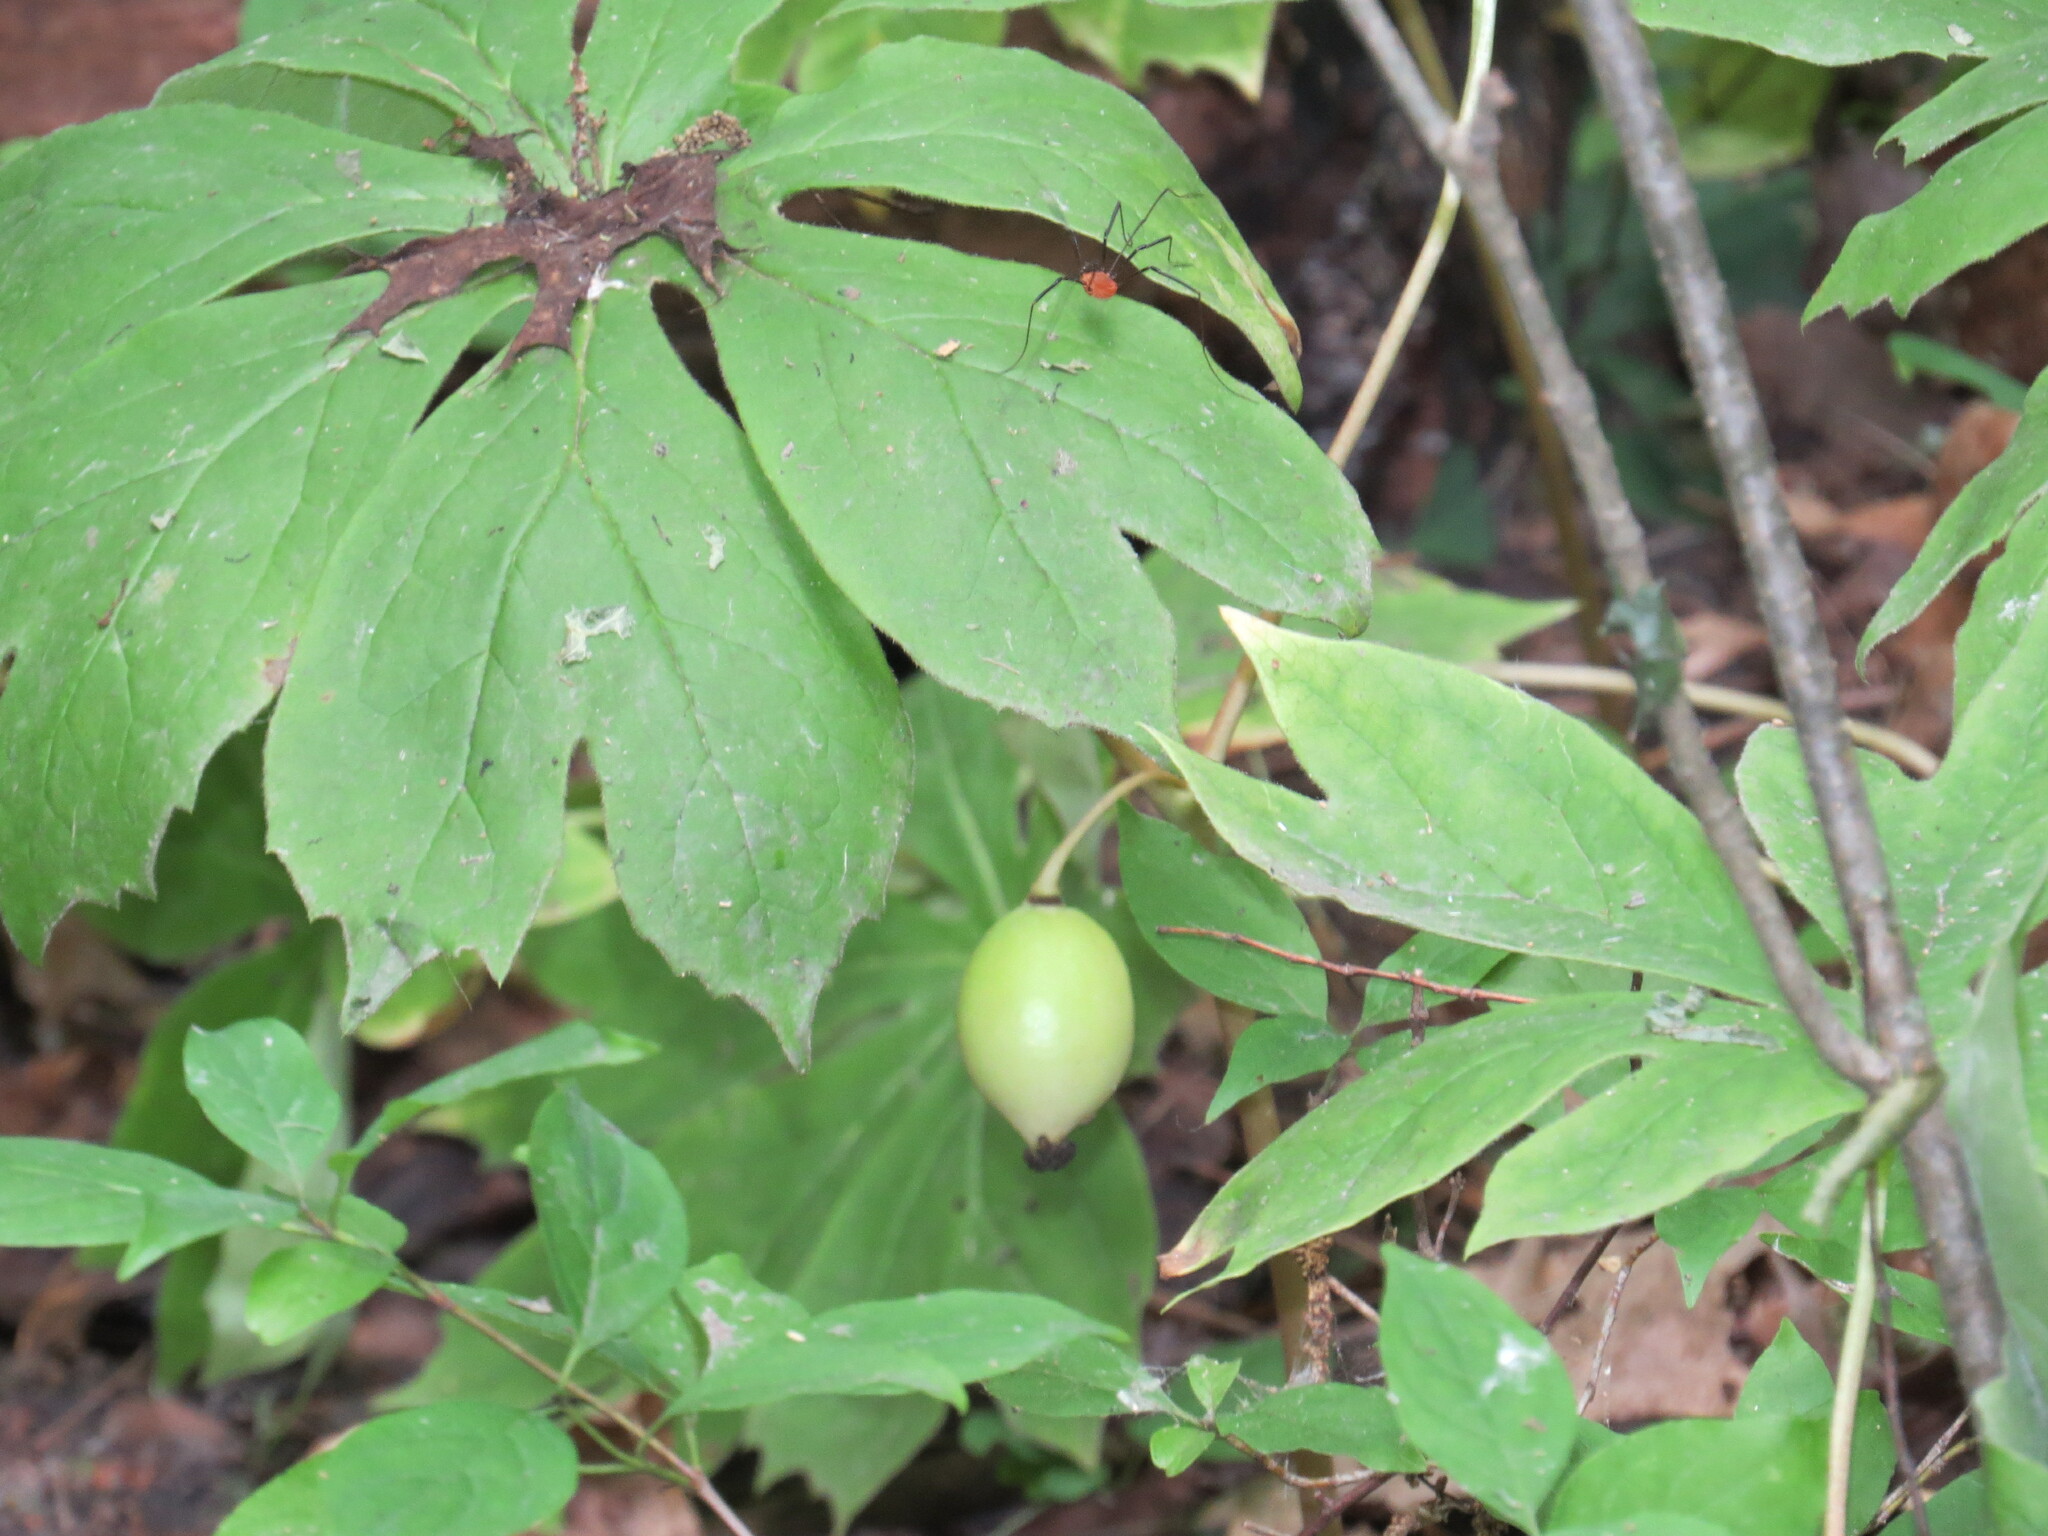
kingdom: Plantae
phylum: Tracheophyta
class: Magnoliopsida
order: Ranunculales
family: Berberidaceae
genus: Podophyllum
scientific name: Podophyllum peltatum
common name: Wild mandrake
